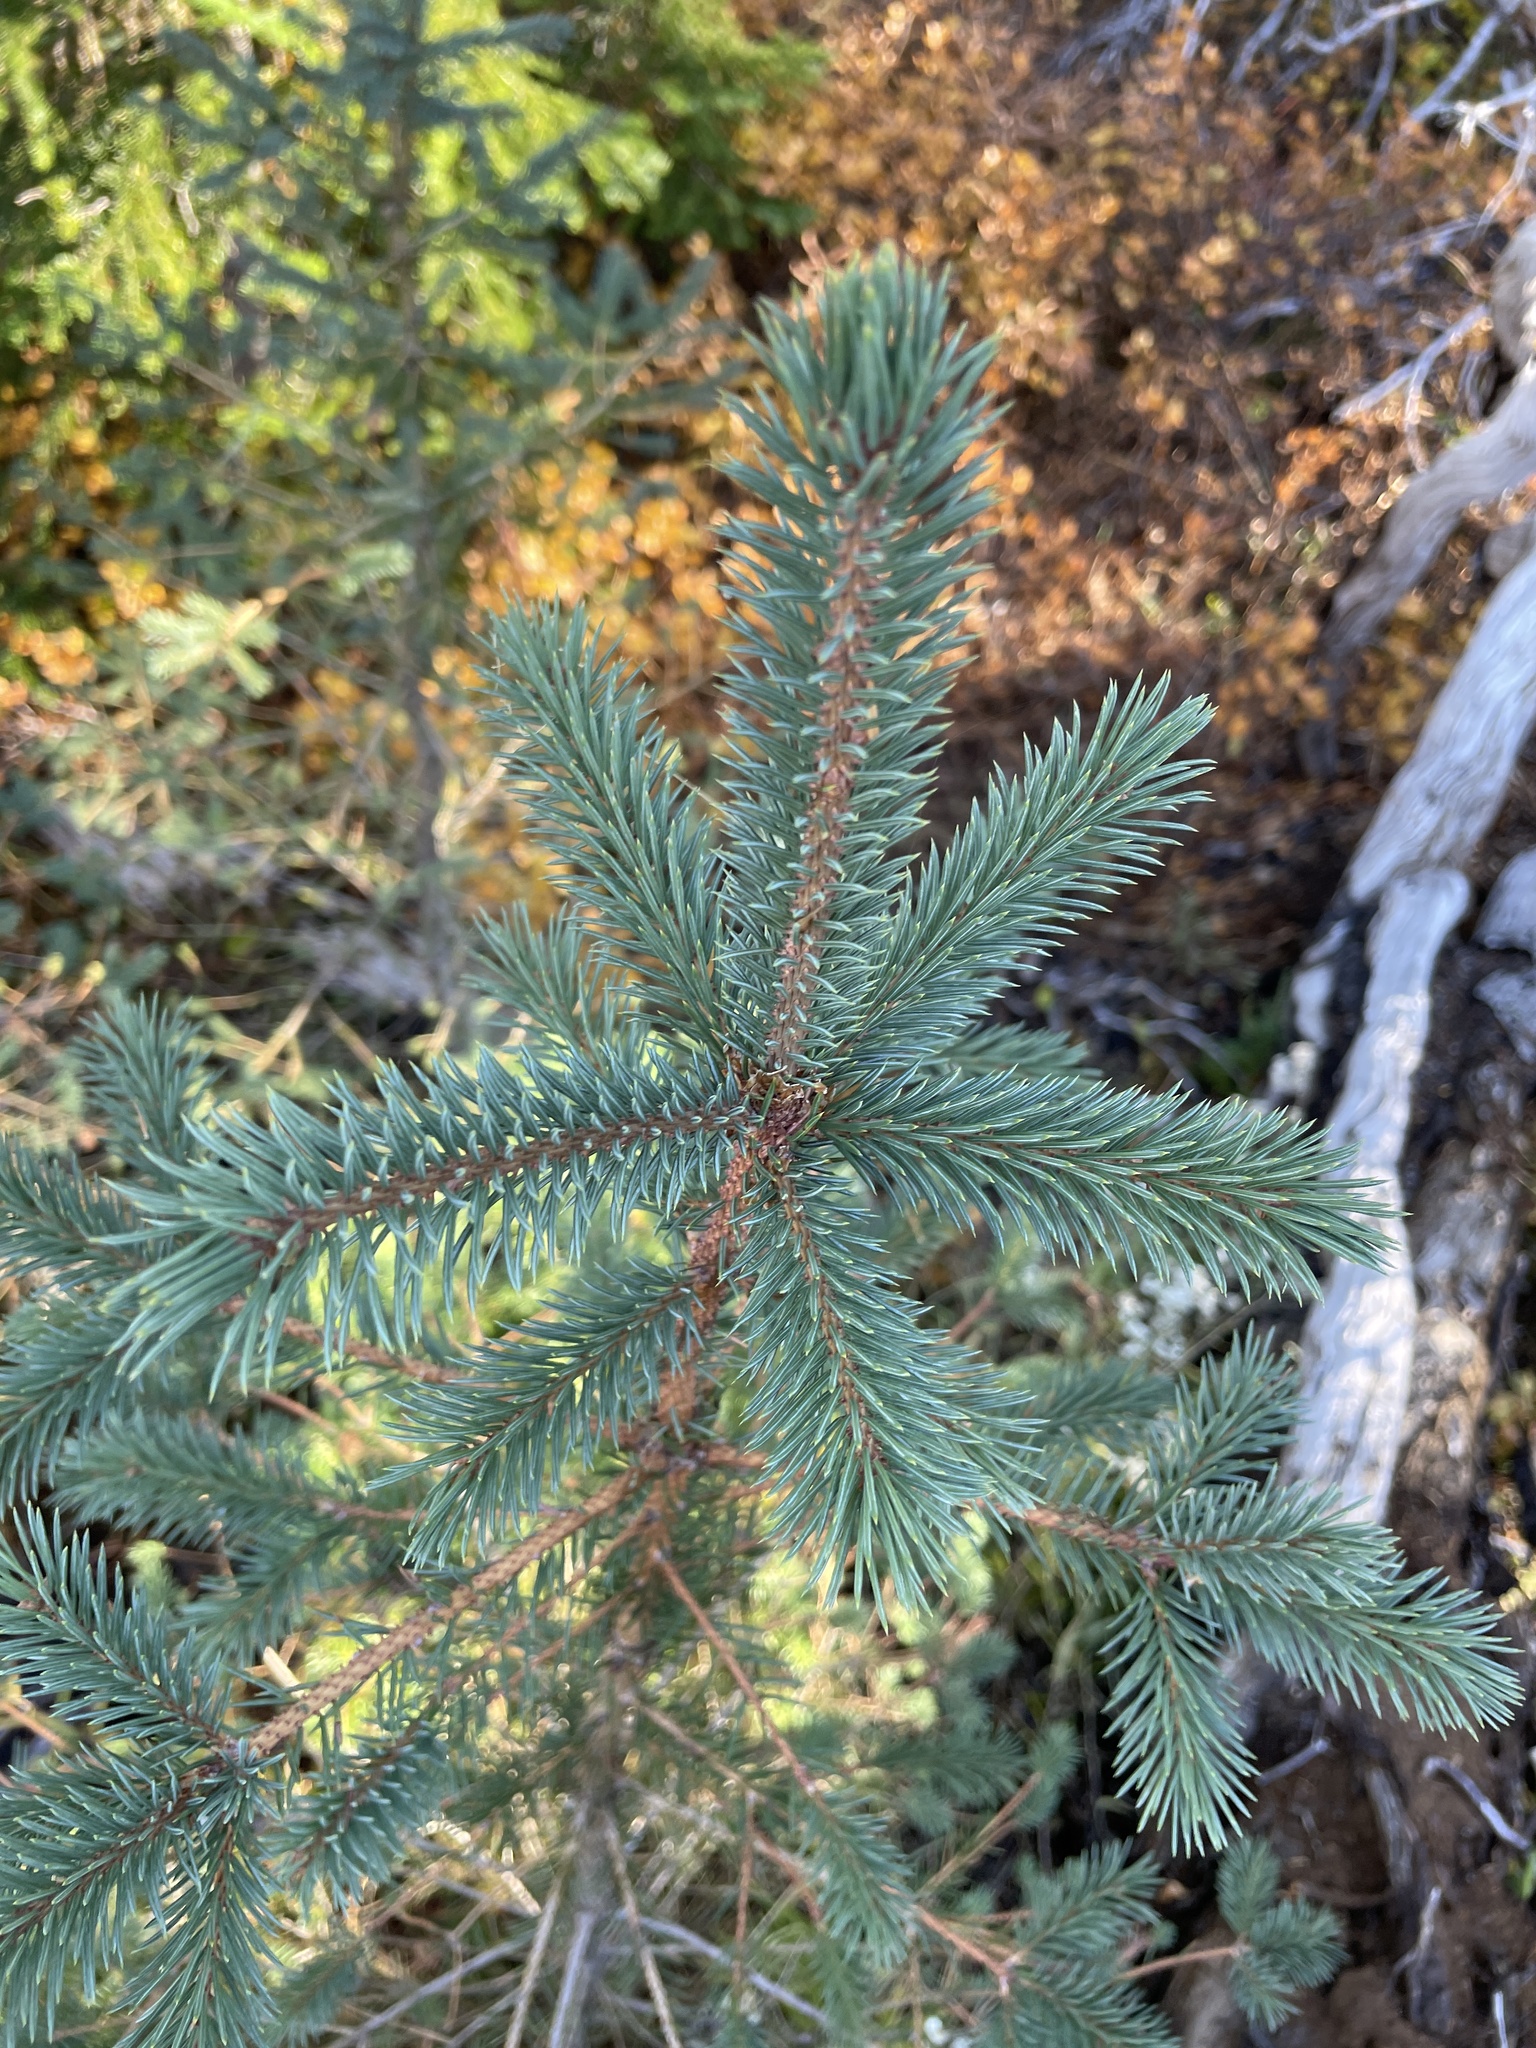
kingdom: Plantae
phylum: Tracheophyta
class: Pinopsida
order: Pinales
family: Pinaceae
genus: Picea
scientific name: Picea engelmannii
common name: Engelmann spruce
